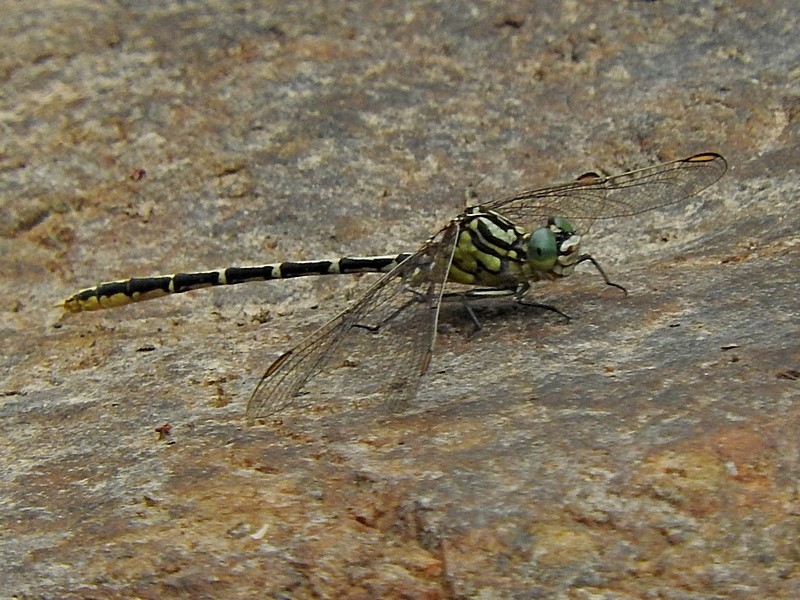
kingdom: Animalia
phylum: Arthropoda
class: Insecta
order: Odonata
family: Gomphidae
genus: Austrogomphus
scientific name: Austrogomphus guerini
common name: Yellow-striped hunter
